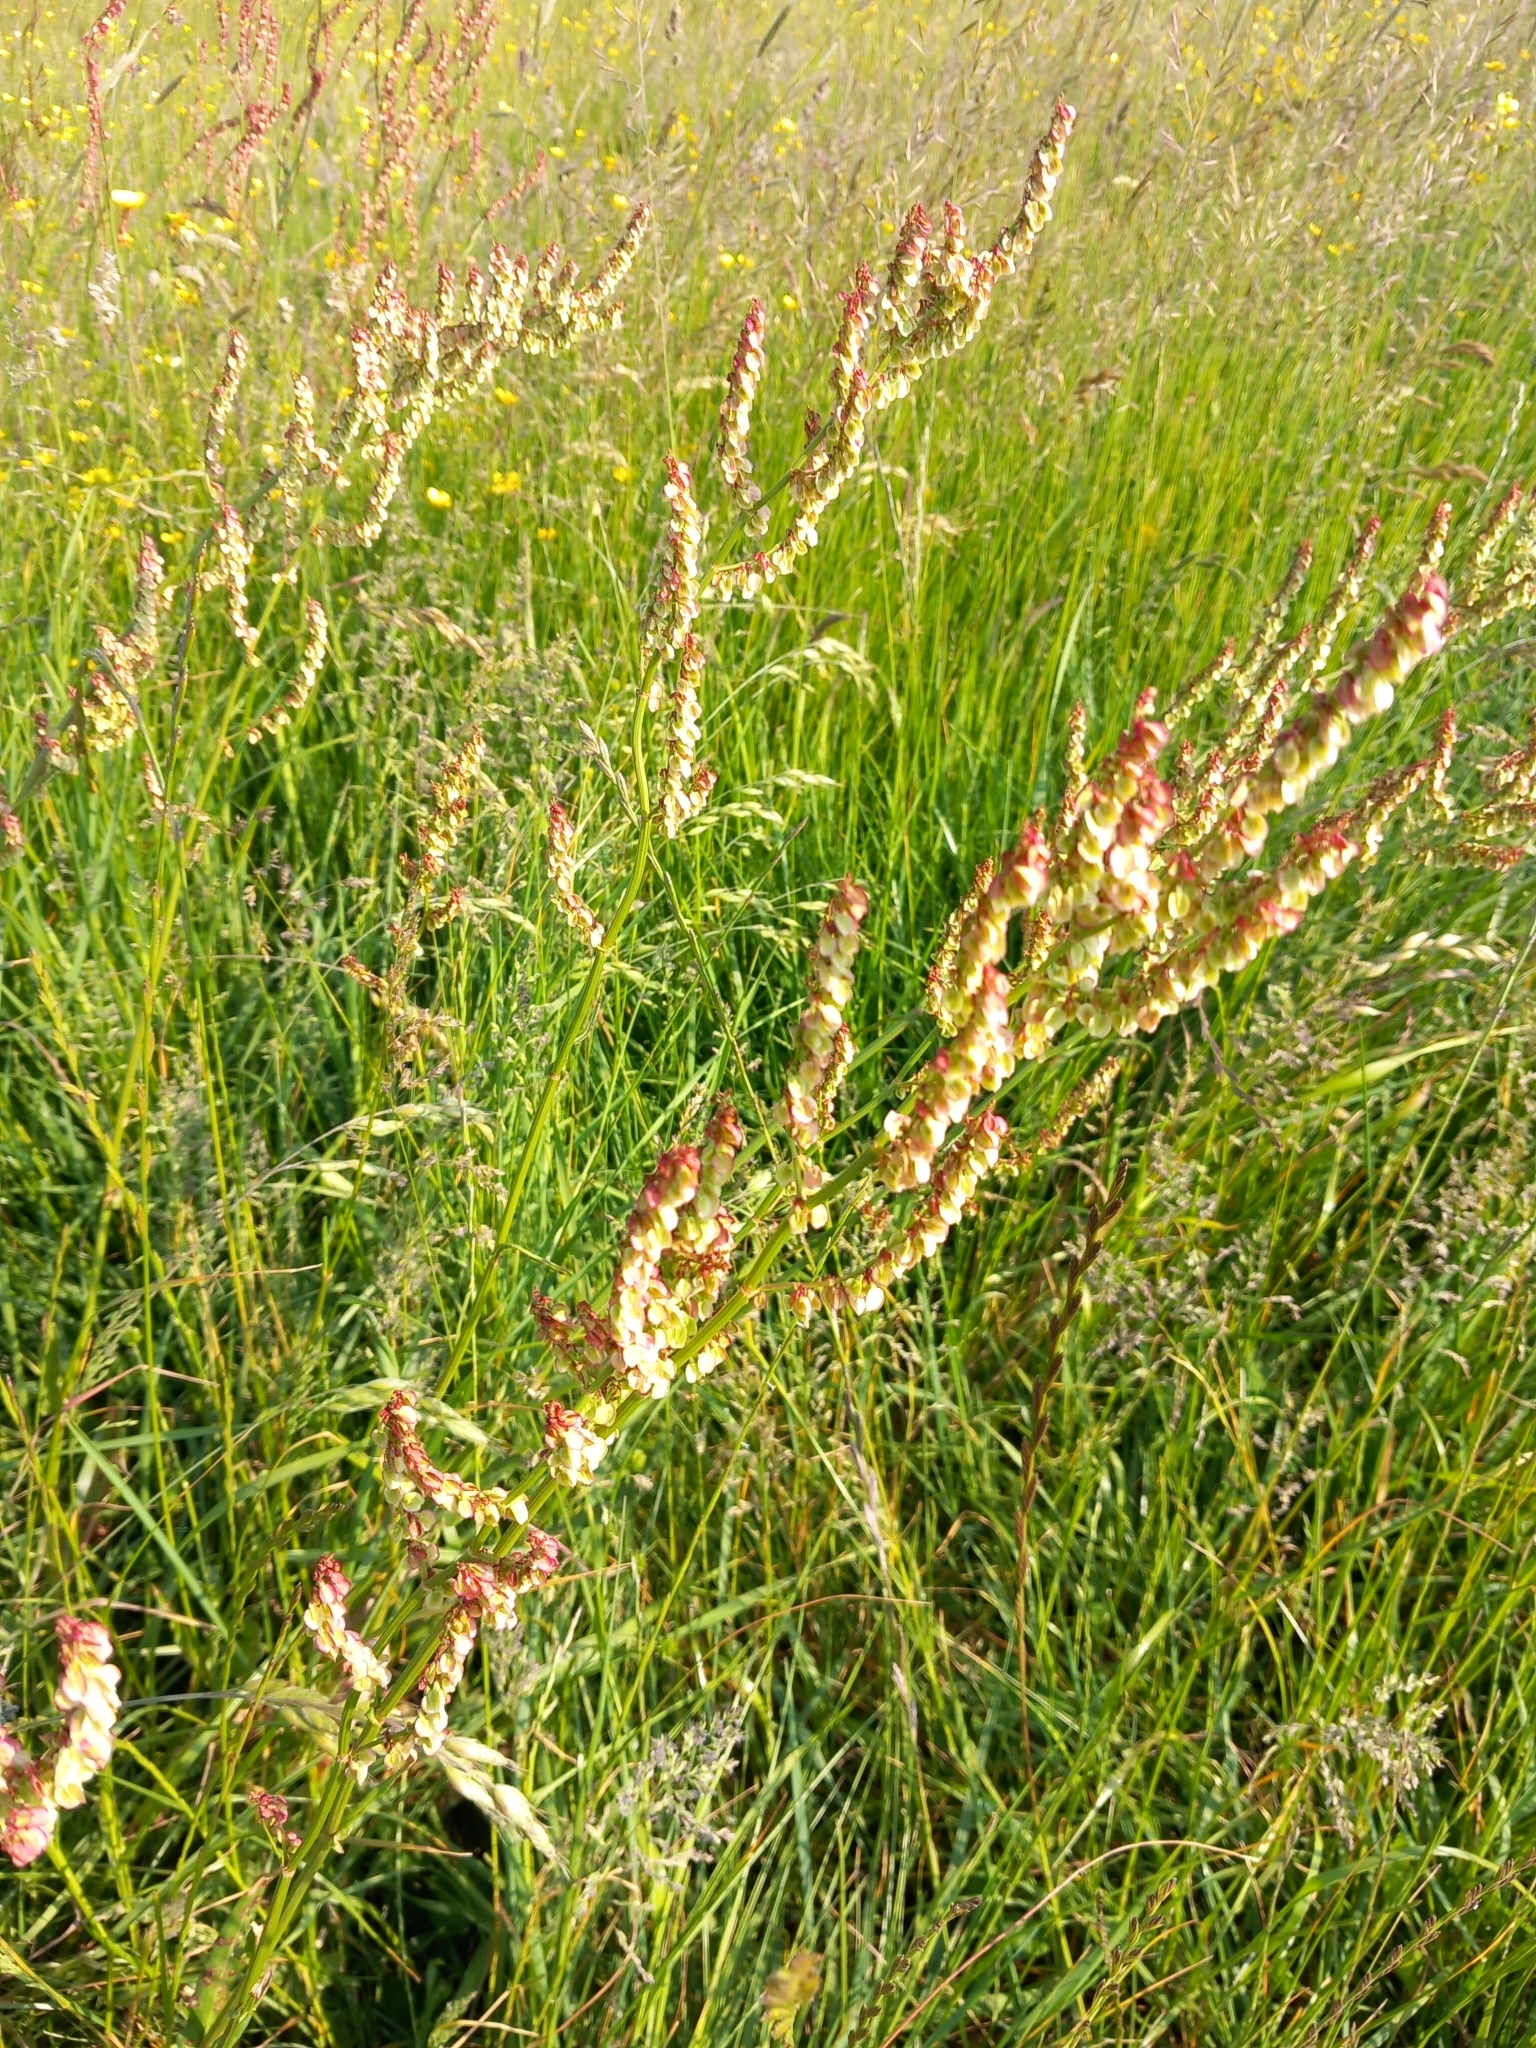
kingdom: Plantae
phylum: Tracheophyta
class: Magnoliopsida
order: Caryophyllales
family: Polygonaceae
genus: Rumex
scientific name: Rumex acetosa
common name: Garden sorrel
